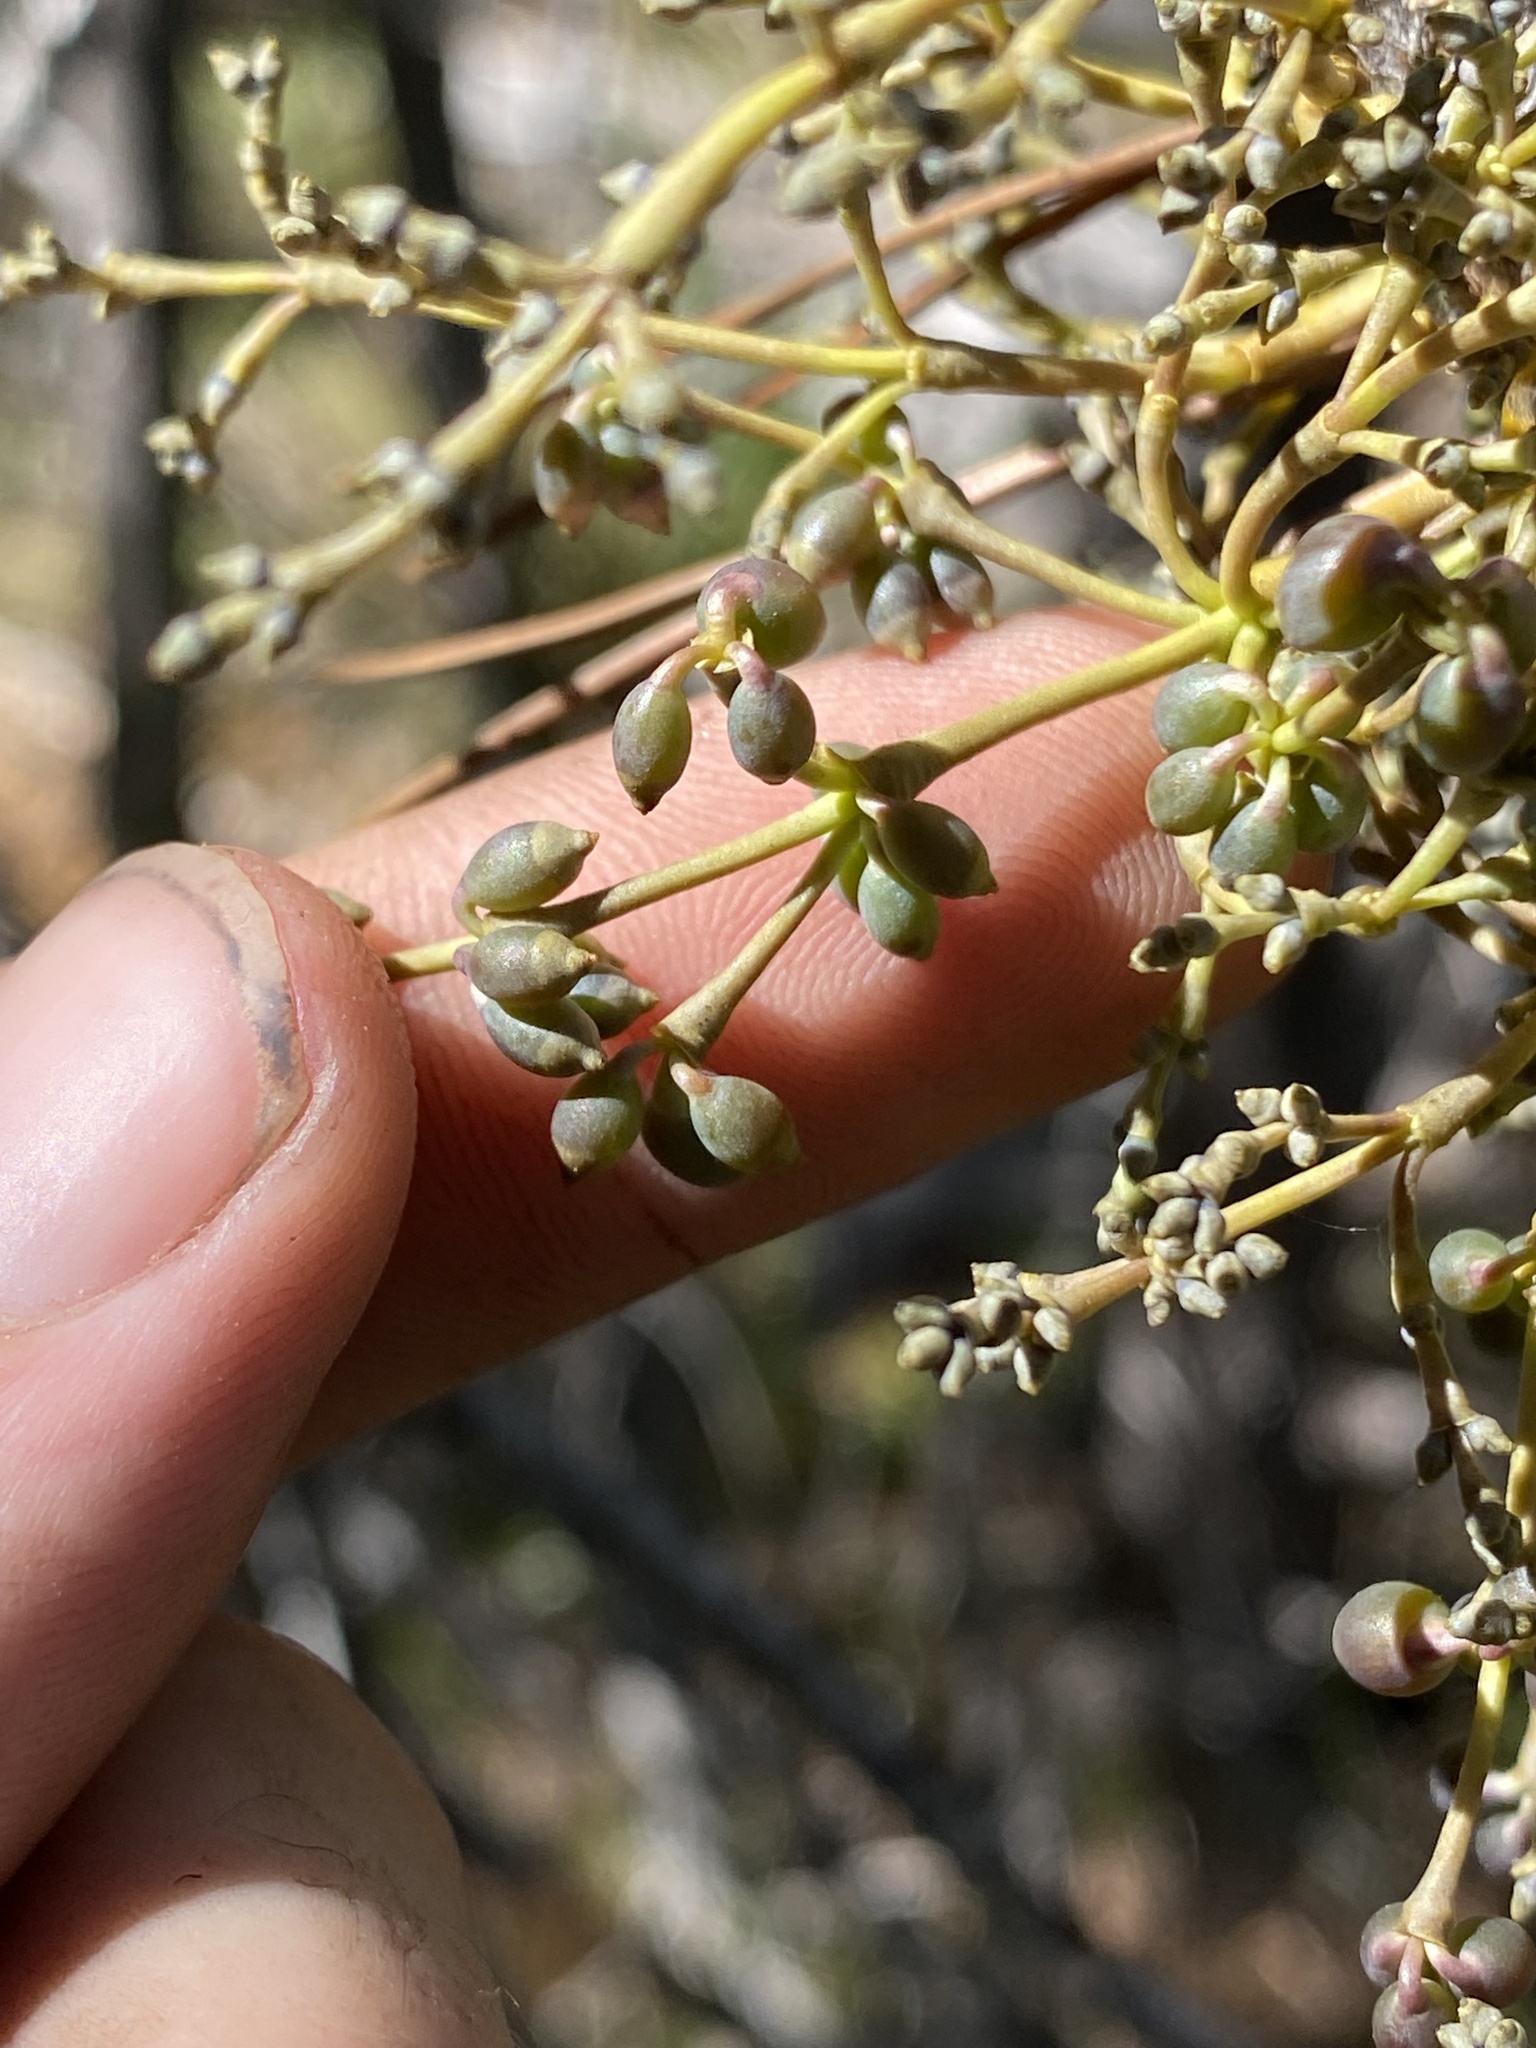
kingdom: Plantae
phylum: Tracheophyta
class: Magnoliopsida
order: Santalales
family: Viscaceae
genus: Arceuthobium
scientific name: Arceuthobium campylopodum
